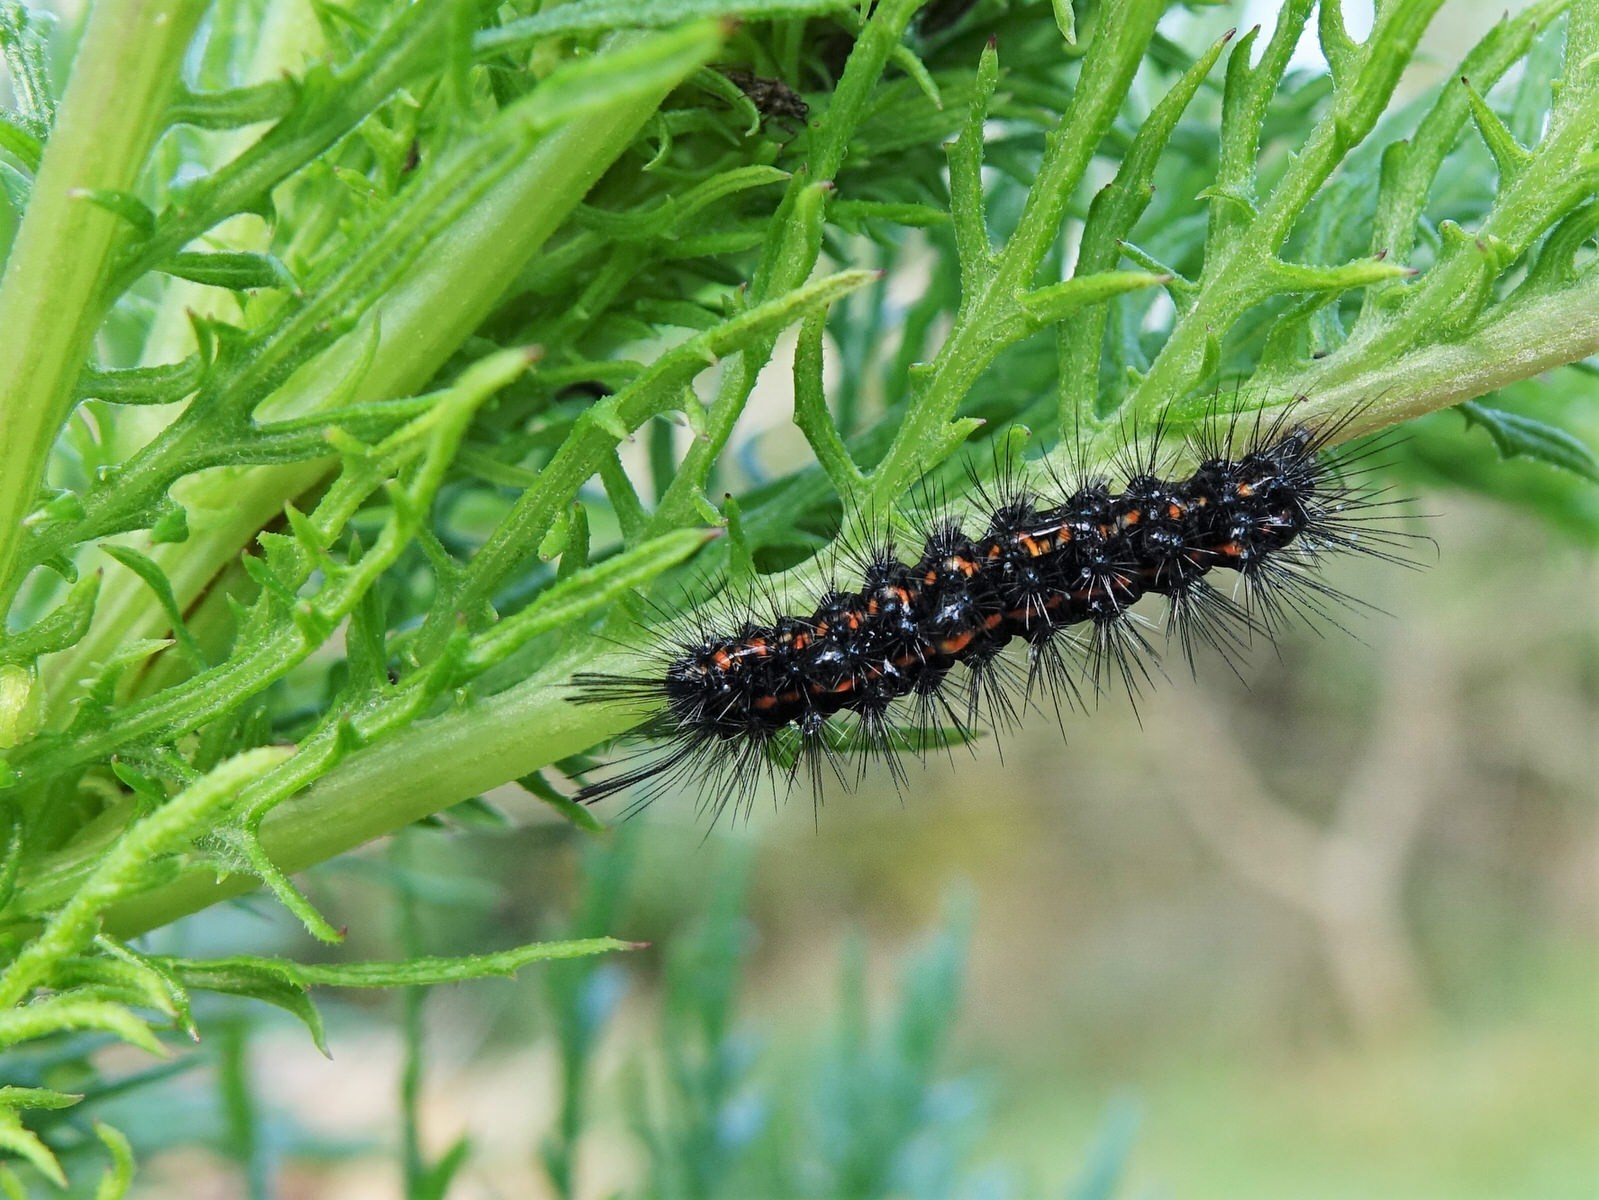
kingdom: Animalia
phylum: Arthropoda
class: Insecta
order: Lepidoptera
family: Erebidae
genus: Nyctemera
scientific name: Nyctemera amicus
